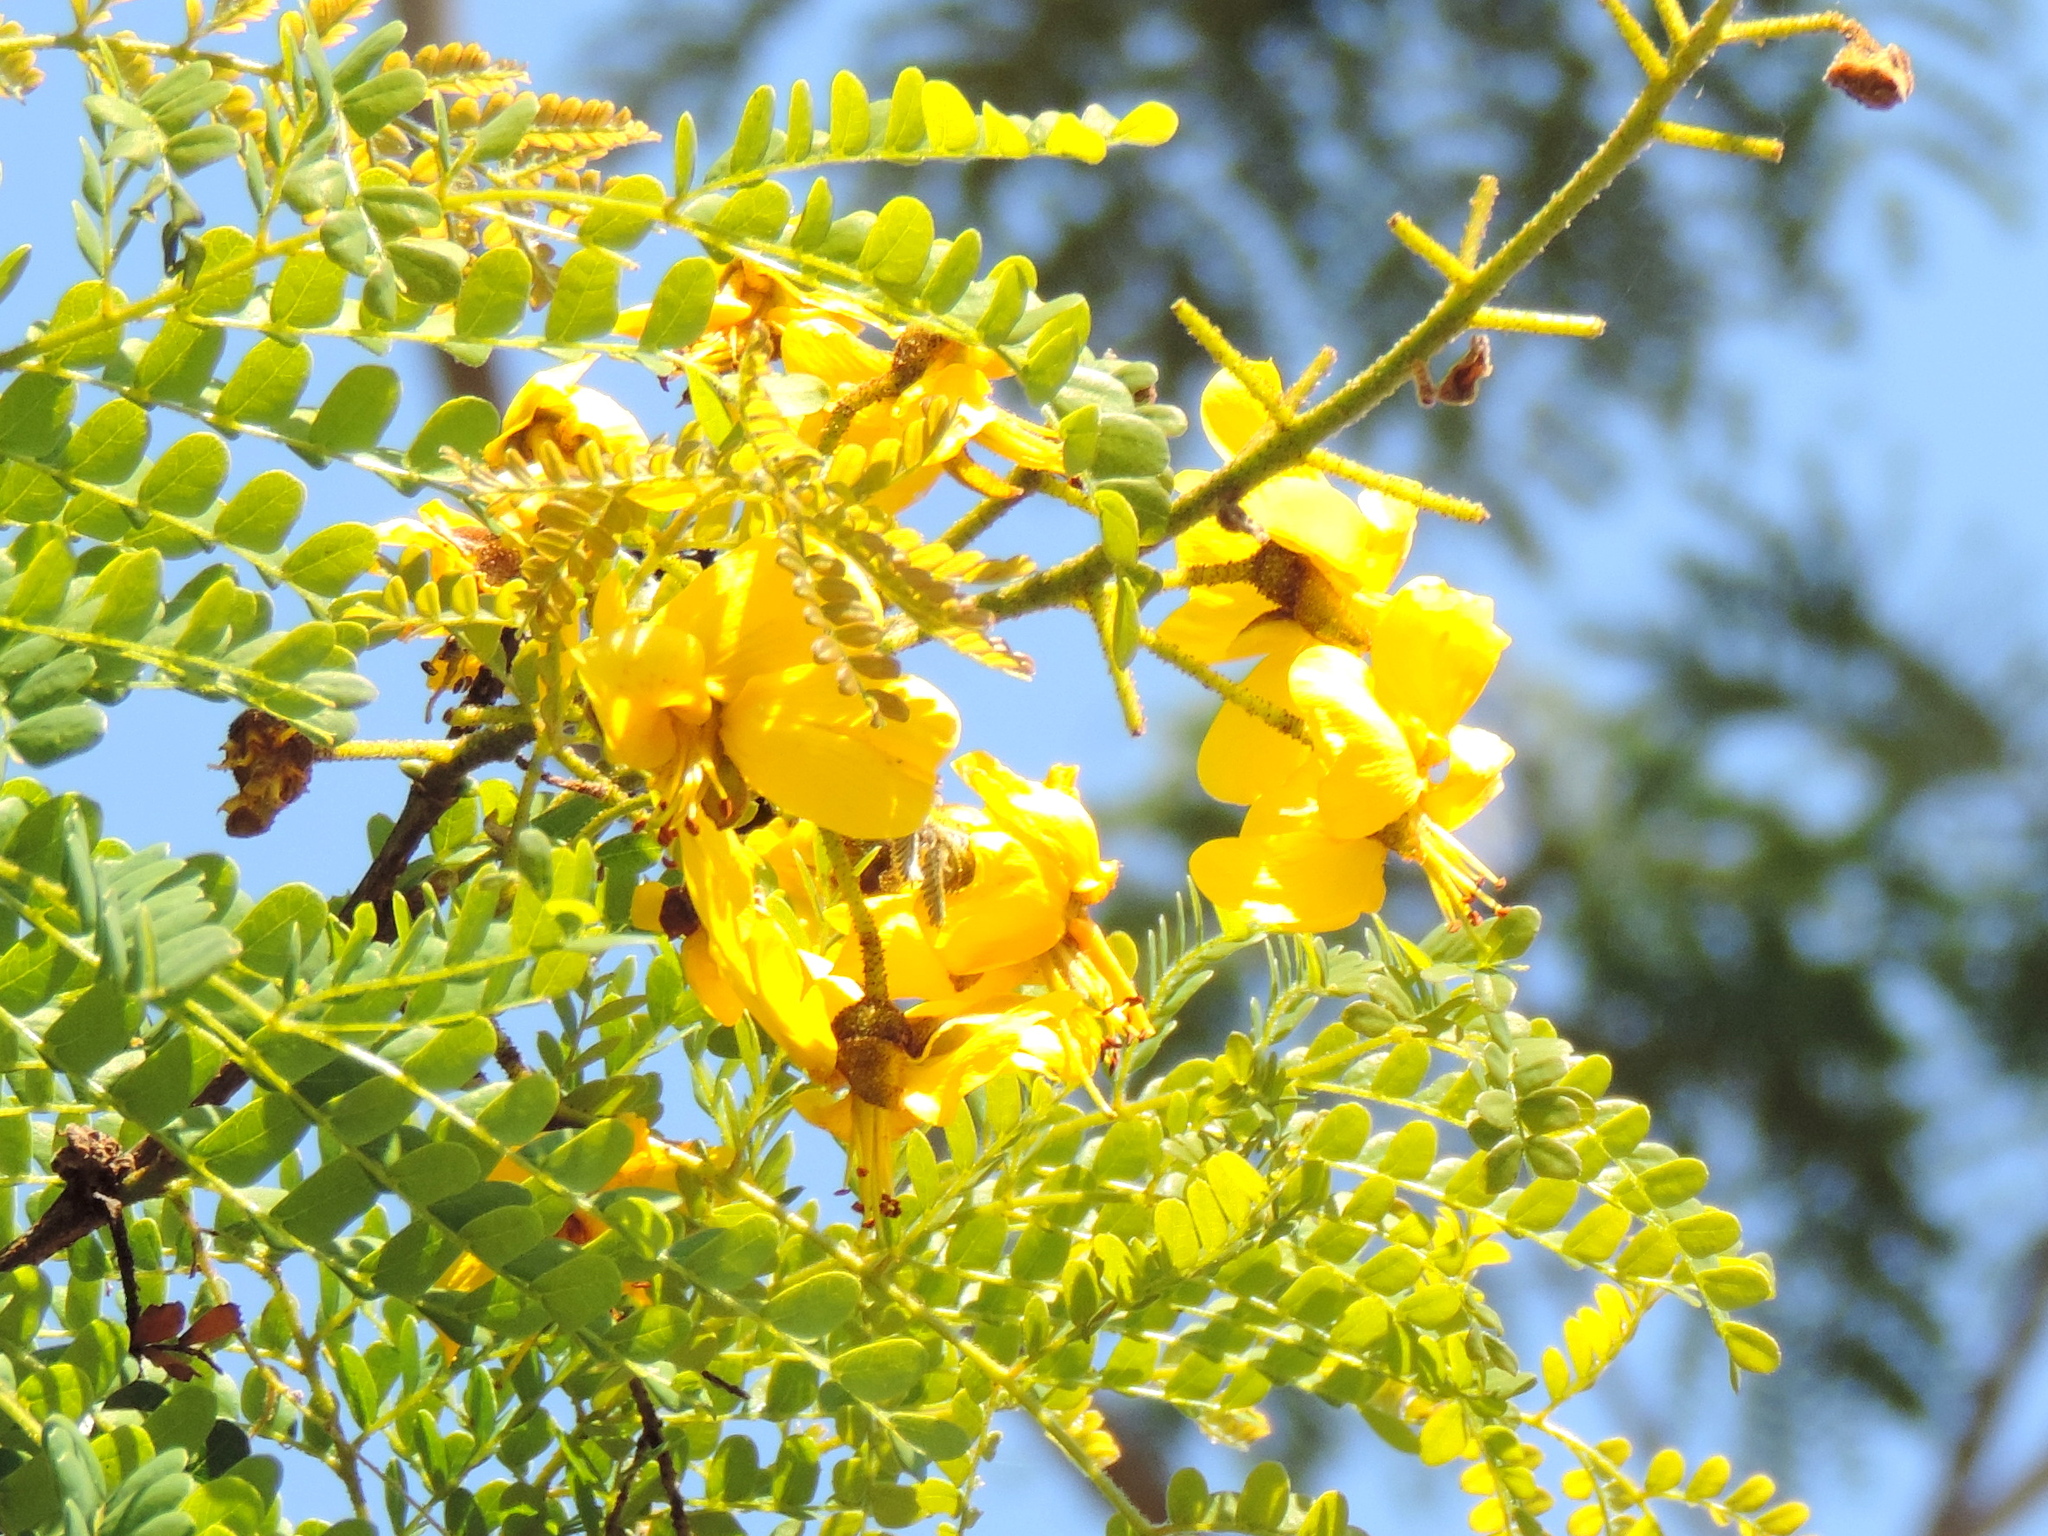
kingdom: Plantae
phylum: Tracheophyta
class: Magnoliopsida
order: Fabales
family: Fabaceae
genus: Cenostigma
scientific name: Cenostigma eriostachys
